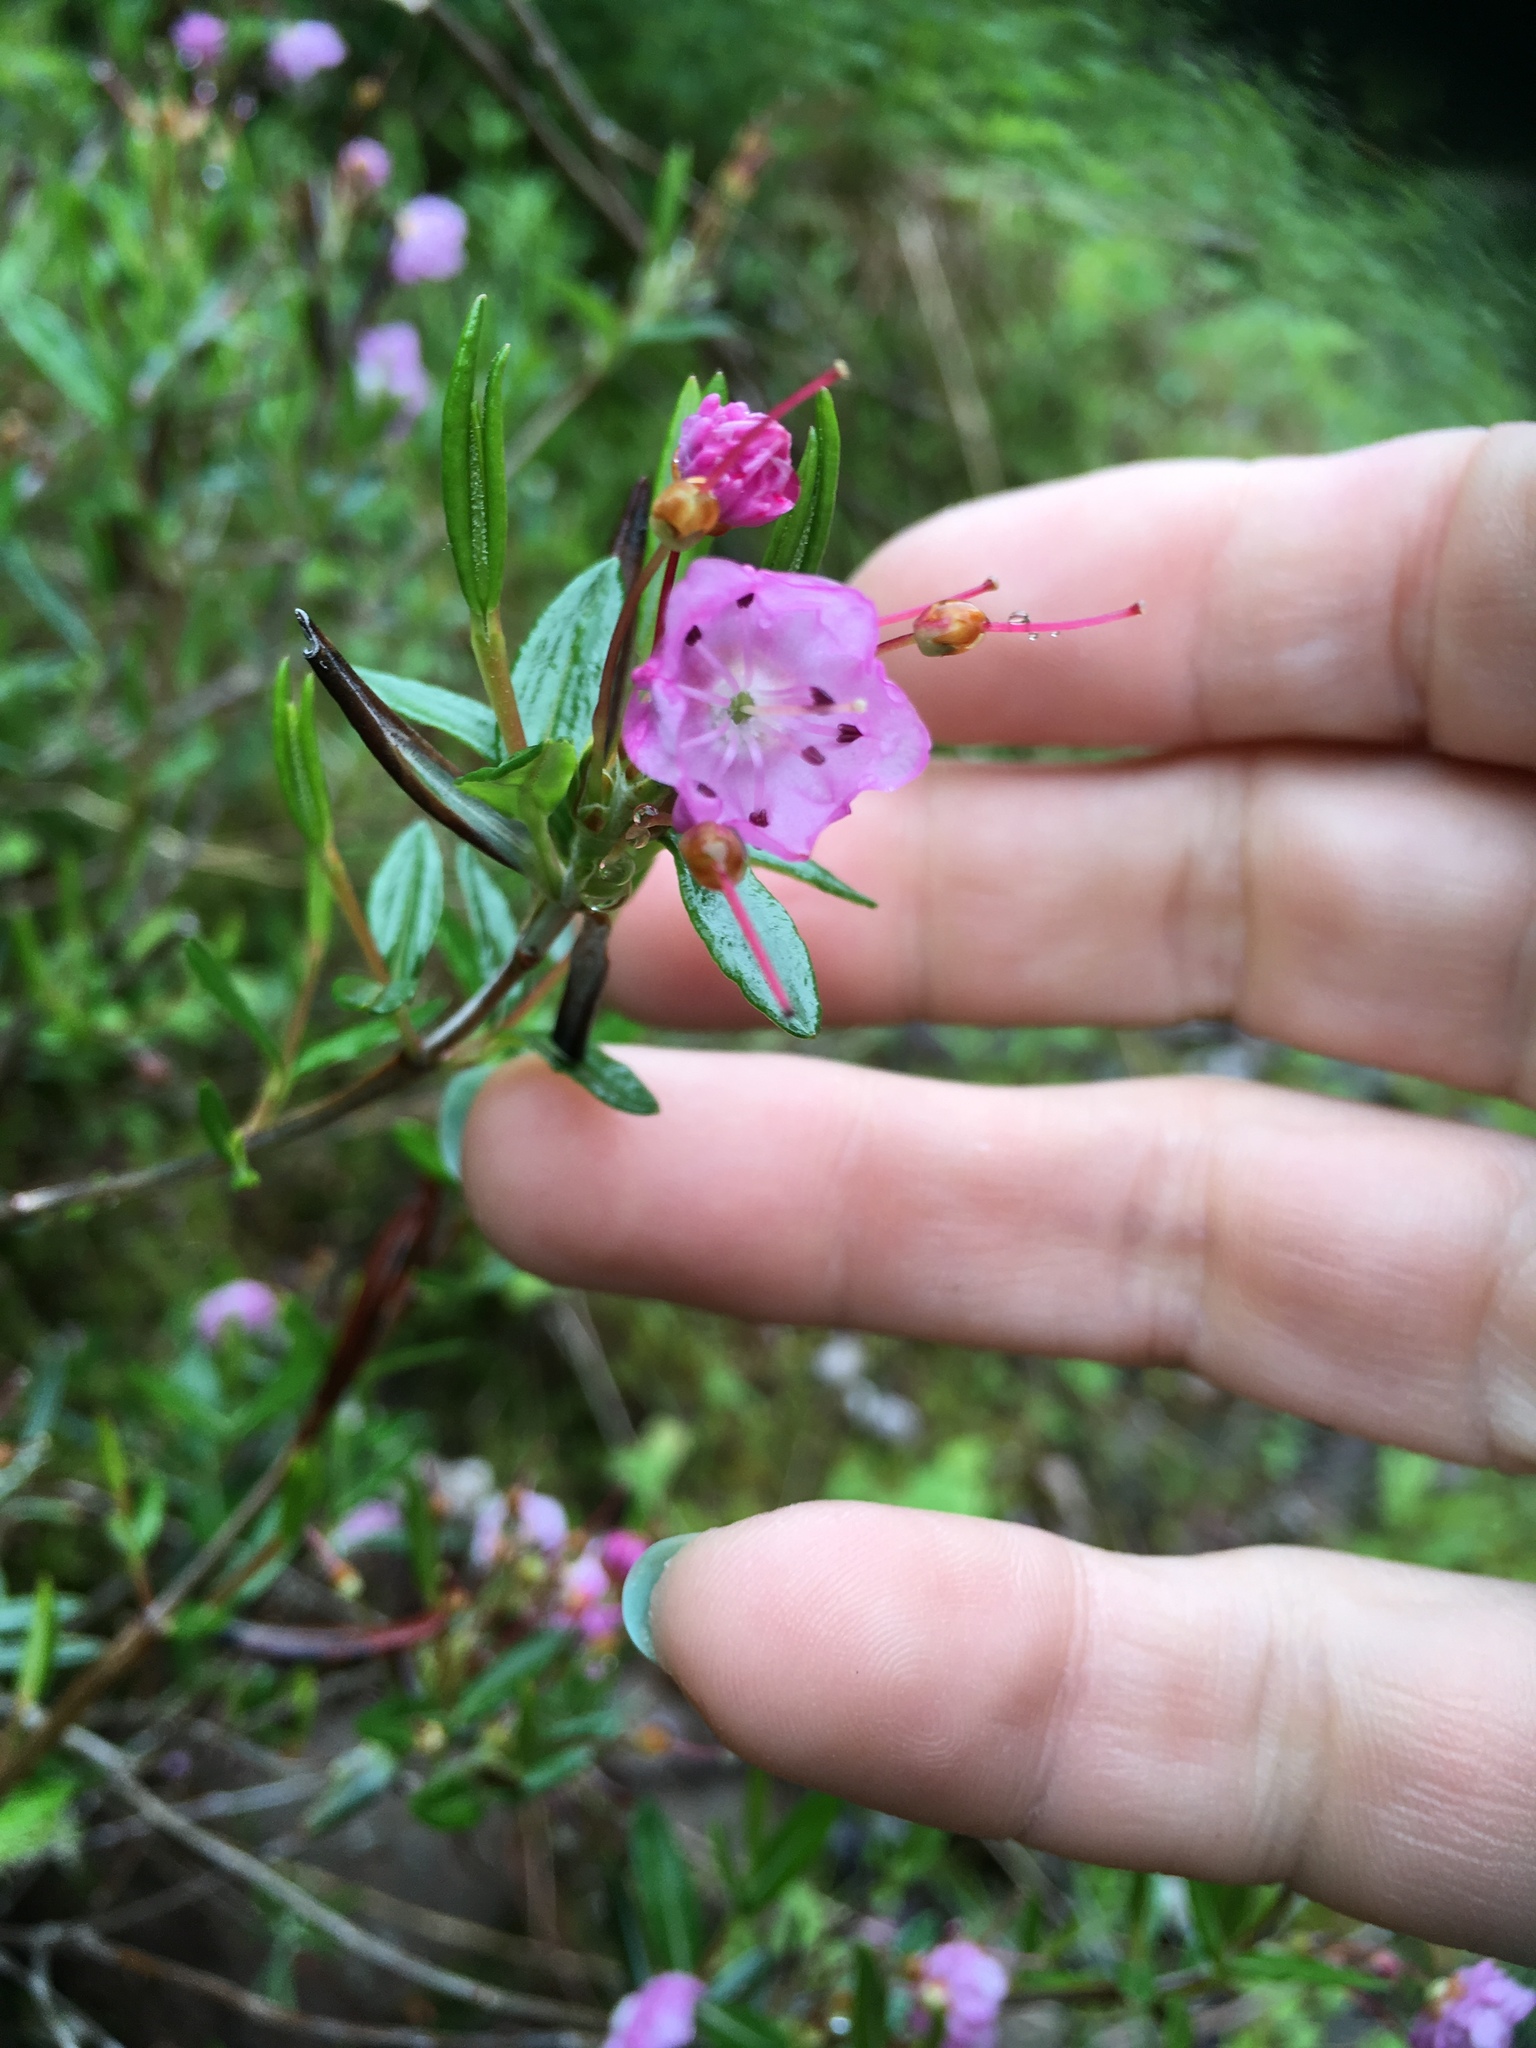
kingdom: Plantae
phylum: Tracheophyta
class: Magnoliopsida
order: Ericales
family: Ericaceae
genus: Kalmia
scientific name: Kalmia polifolia
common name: Bog-laurel
